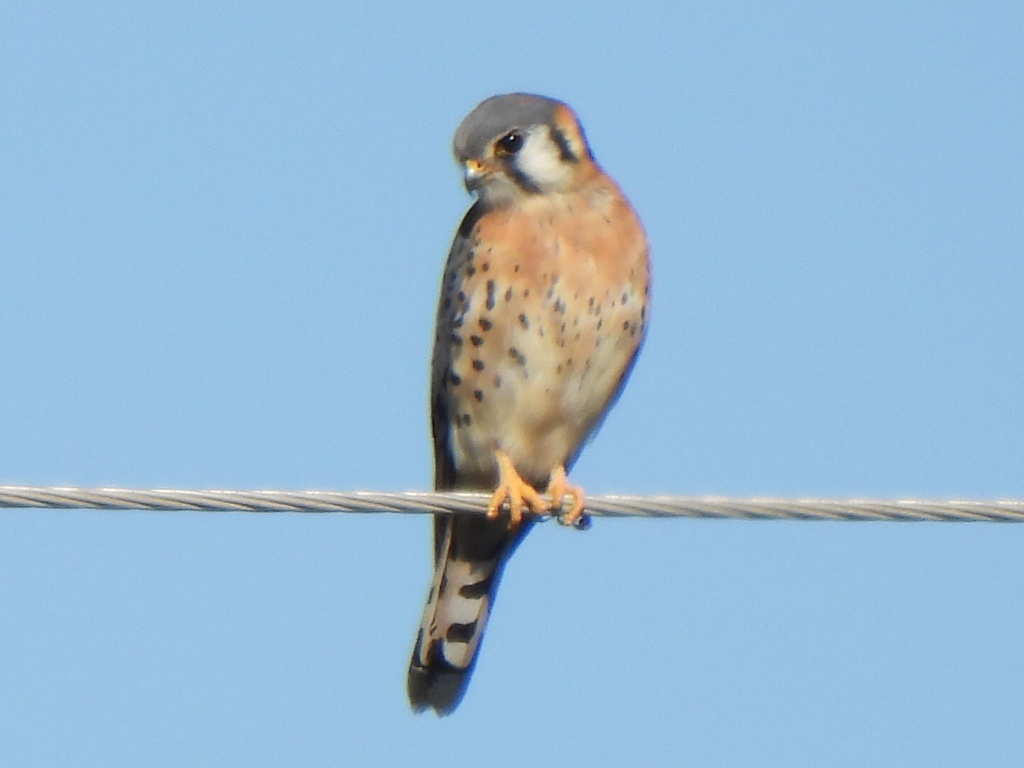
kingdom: Animalia
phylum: Chordata
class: Aves
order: Falconiformes
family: Falconidae
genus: Falco
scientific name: Falco sparverius
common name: American kestrel
